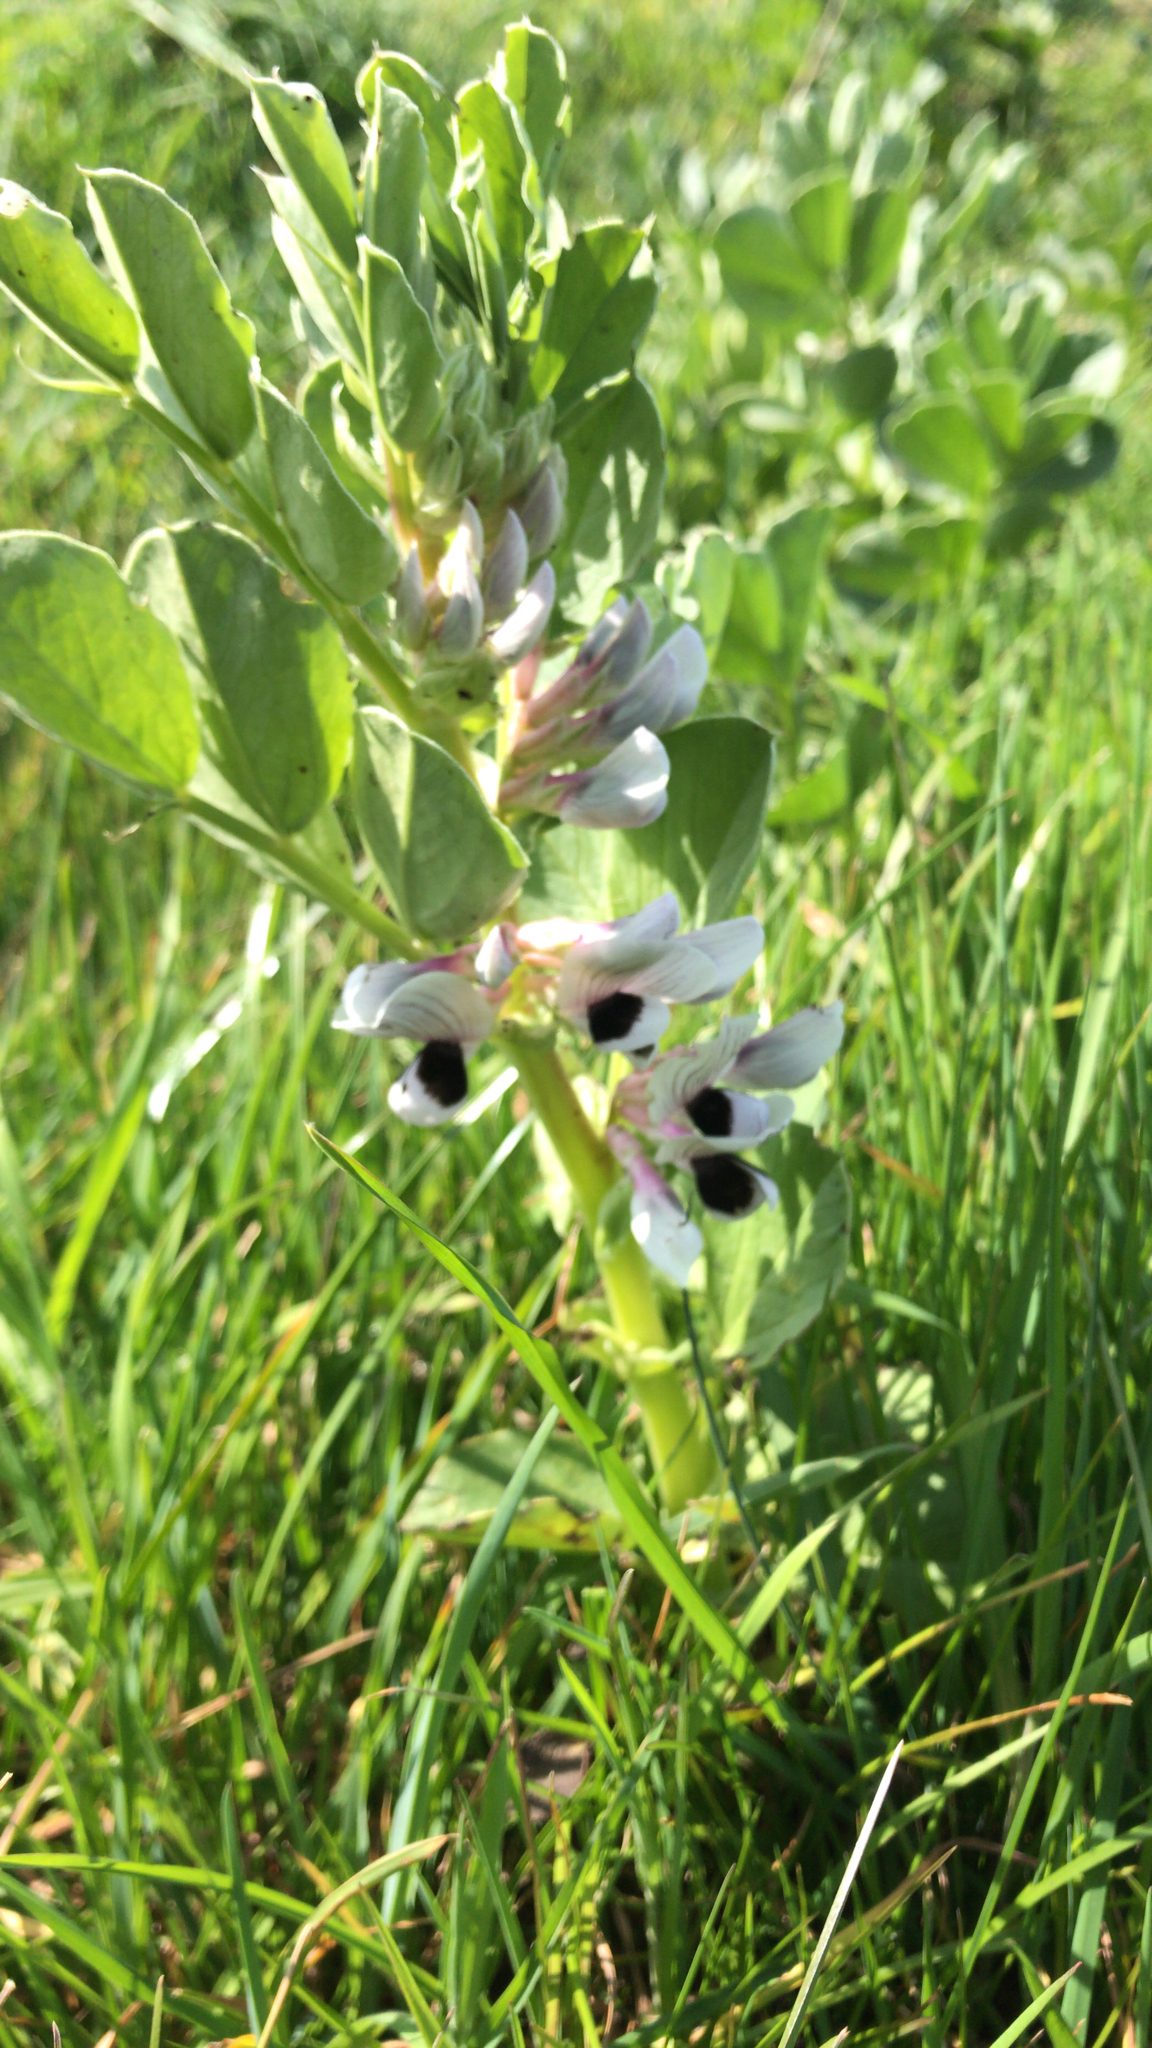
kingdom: Plantae
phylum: Tracheophyta
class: Magnoliopsida
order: Fabales
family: Fabaceae
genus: Vicia
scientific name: Vicia faba
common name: Broad bean
